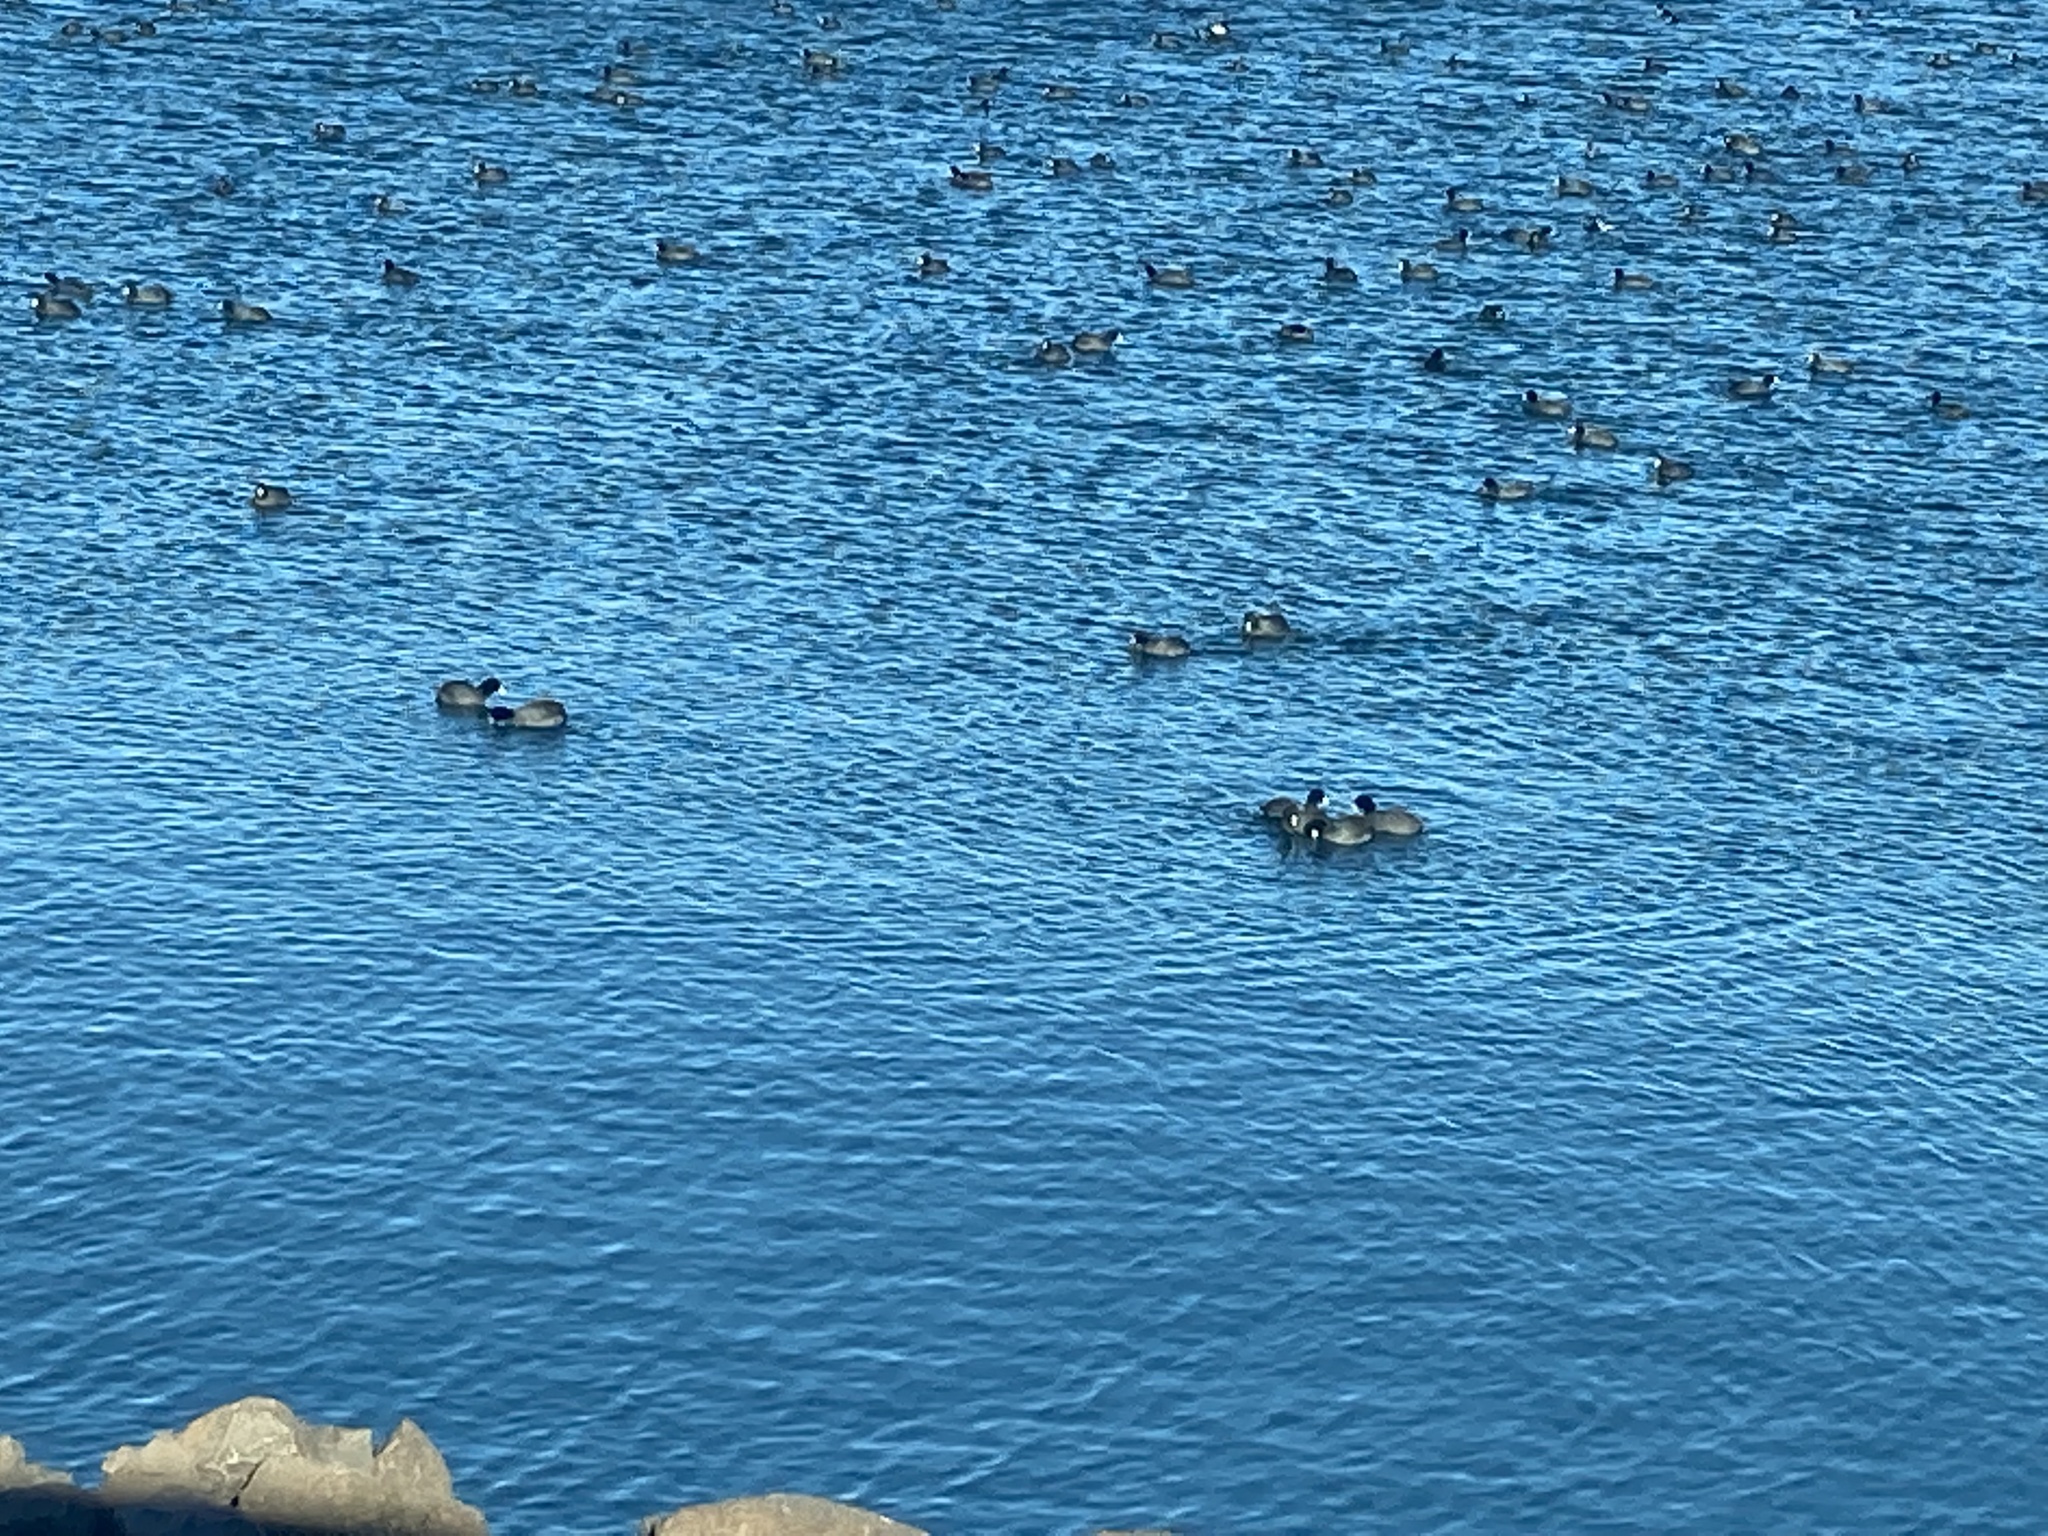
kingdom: Animalia
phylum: Chordata
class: Aves
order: Gruiformes
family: Rallidae
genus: Fulica
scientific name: Fulica americana
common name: American coot
